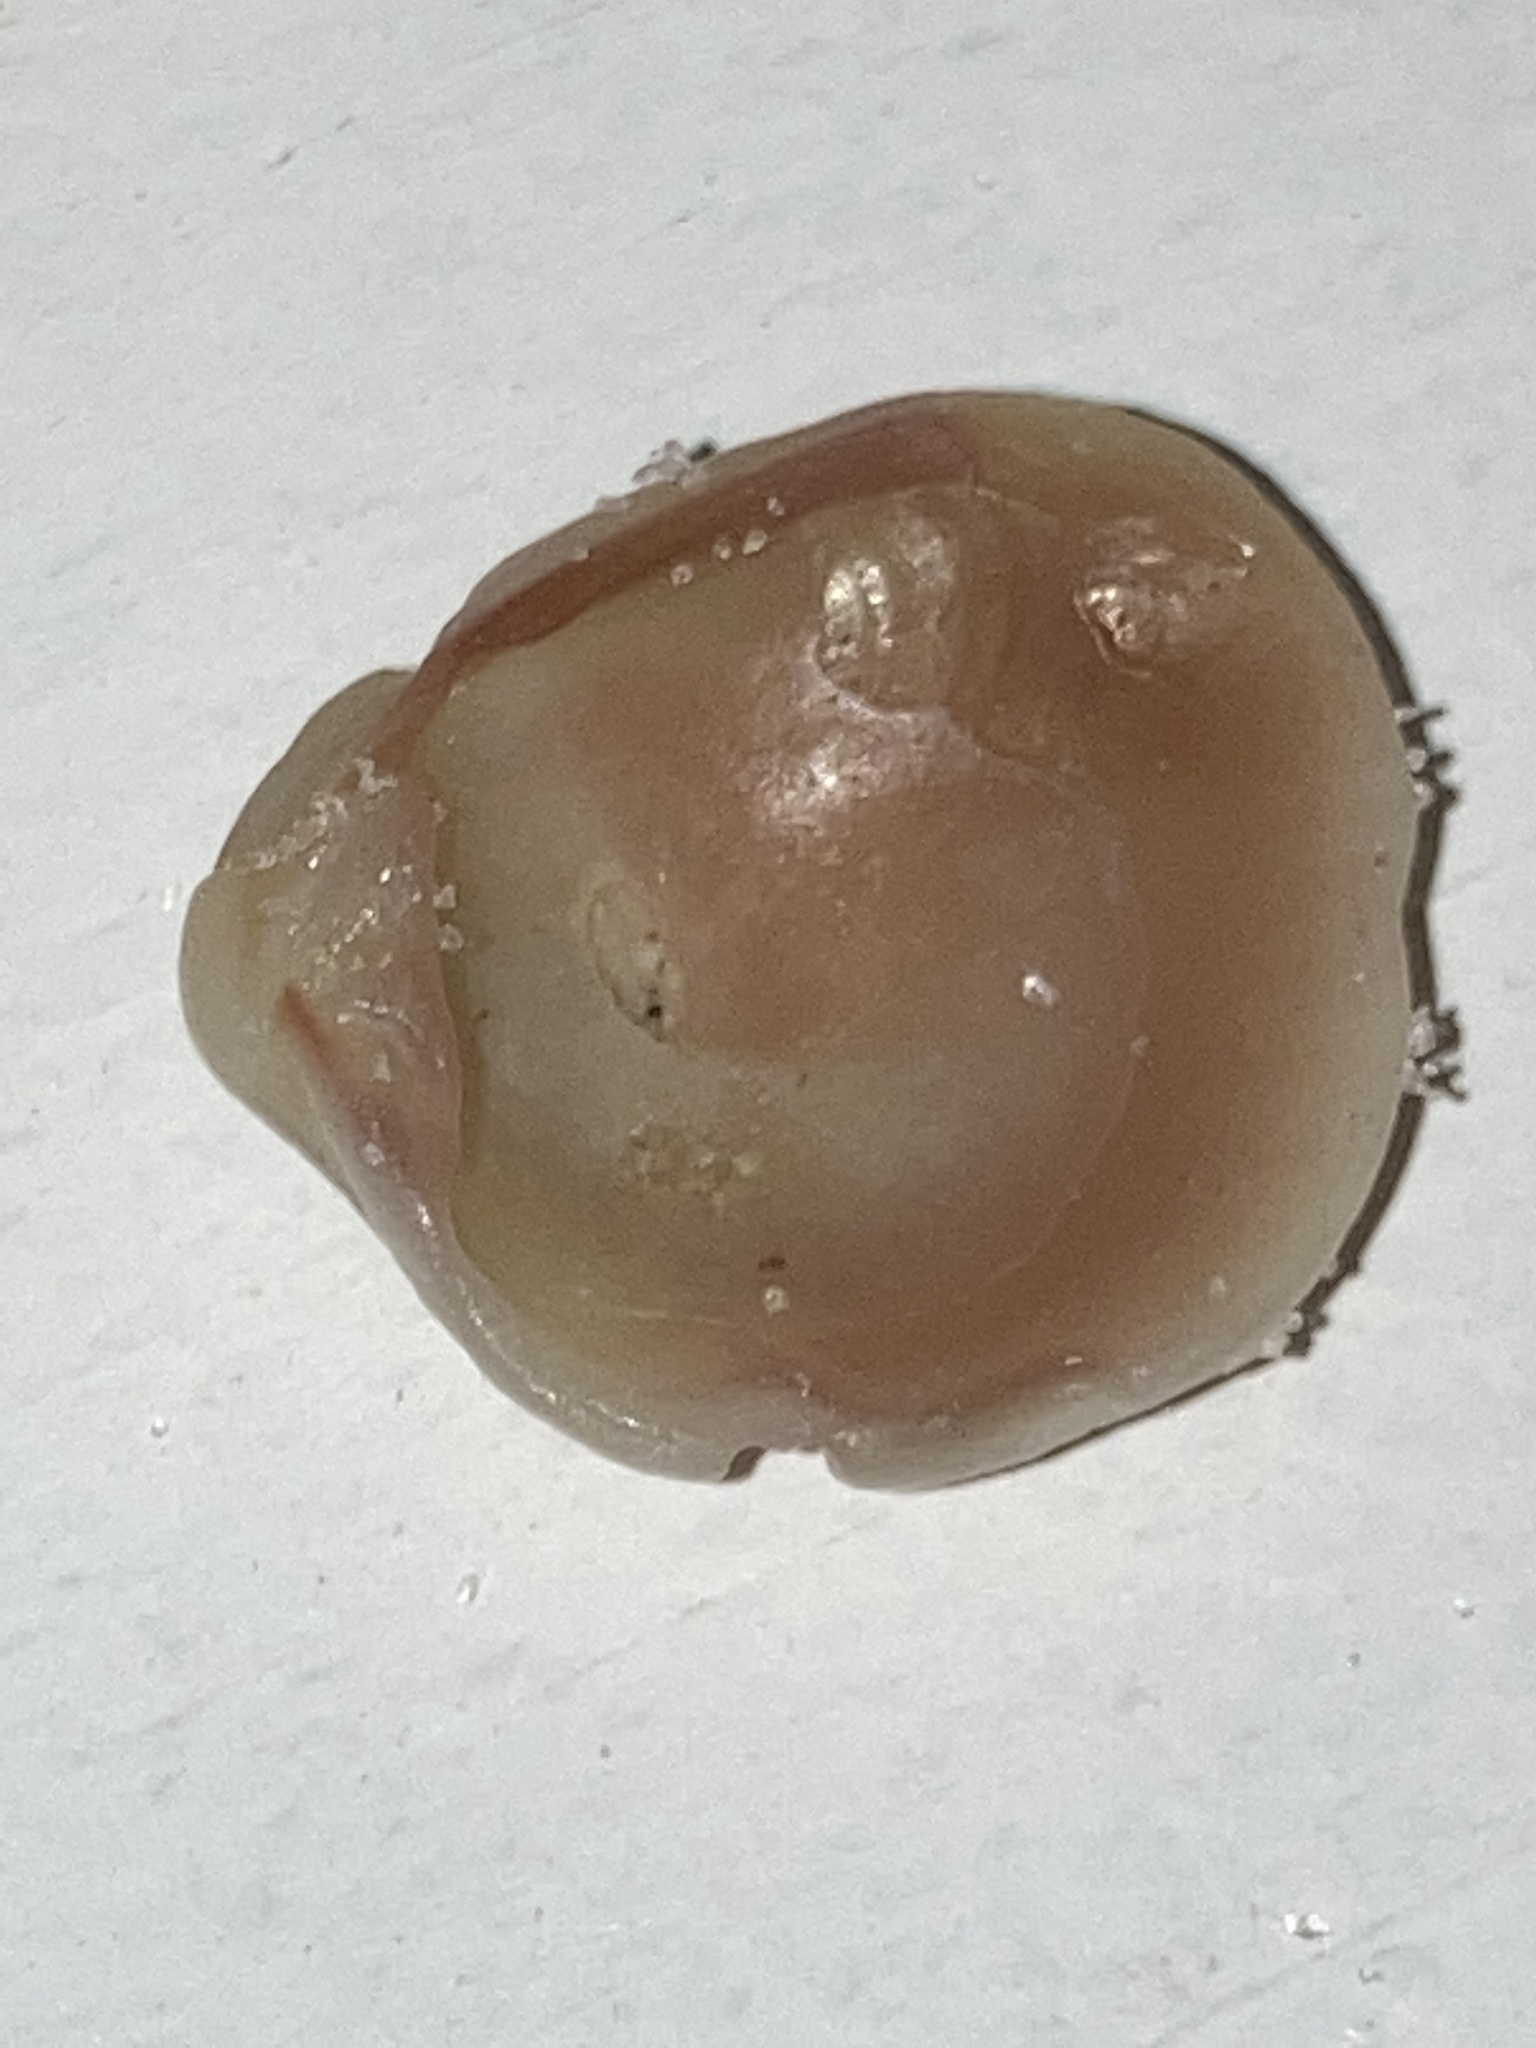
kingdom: Animalia
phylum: Mollusca
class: Bivalvia
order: Venerida
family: Veneridae
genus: Chione
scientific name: Chione elevata
